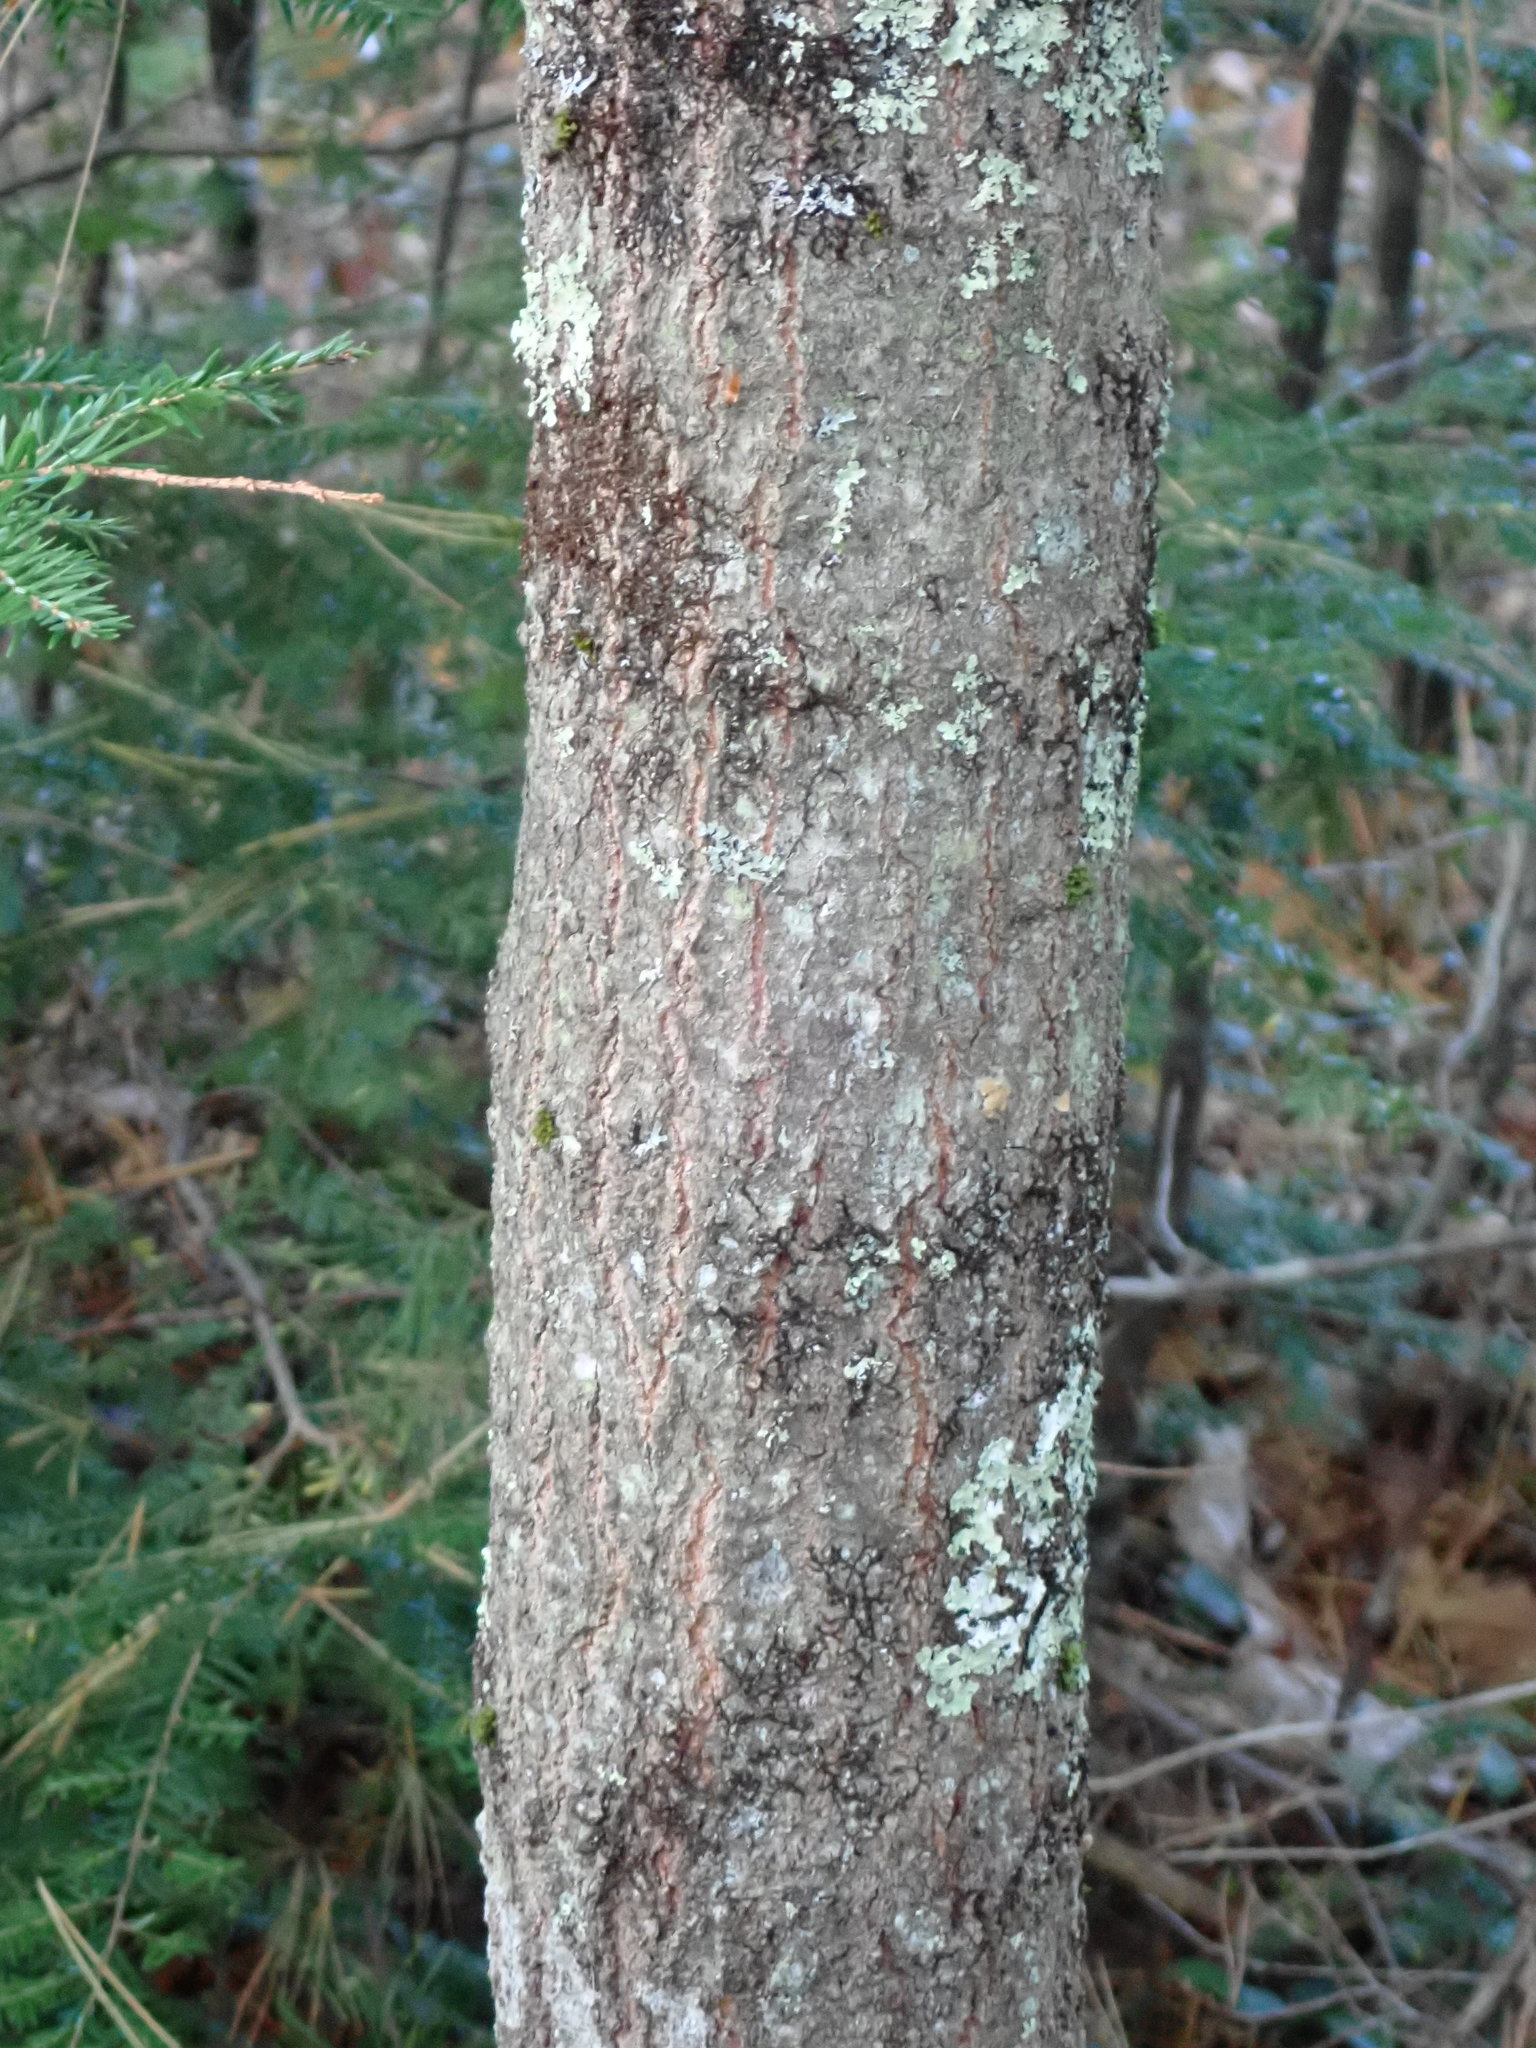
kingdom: Plantae
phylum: Tracheophyta
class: Magnoliopsida
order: Fagales
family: Fagaceae
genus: Quercus
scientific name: Quercus rubra
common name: Red oak
